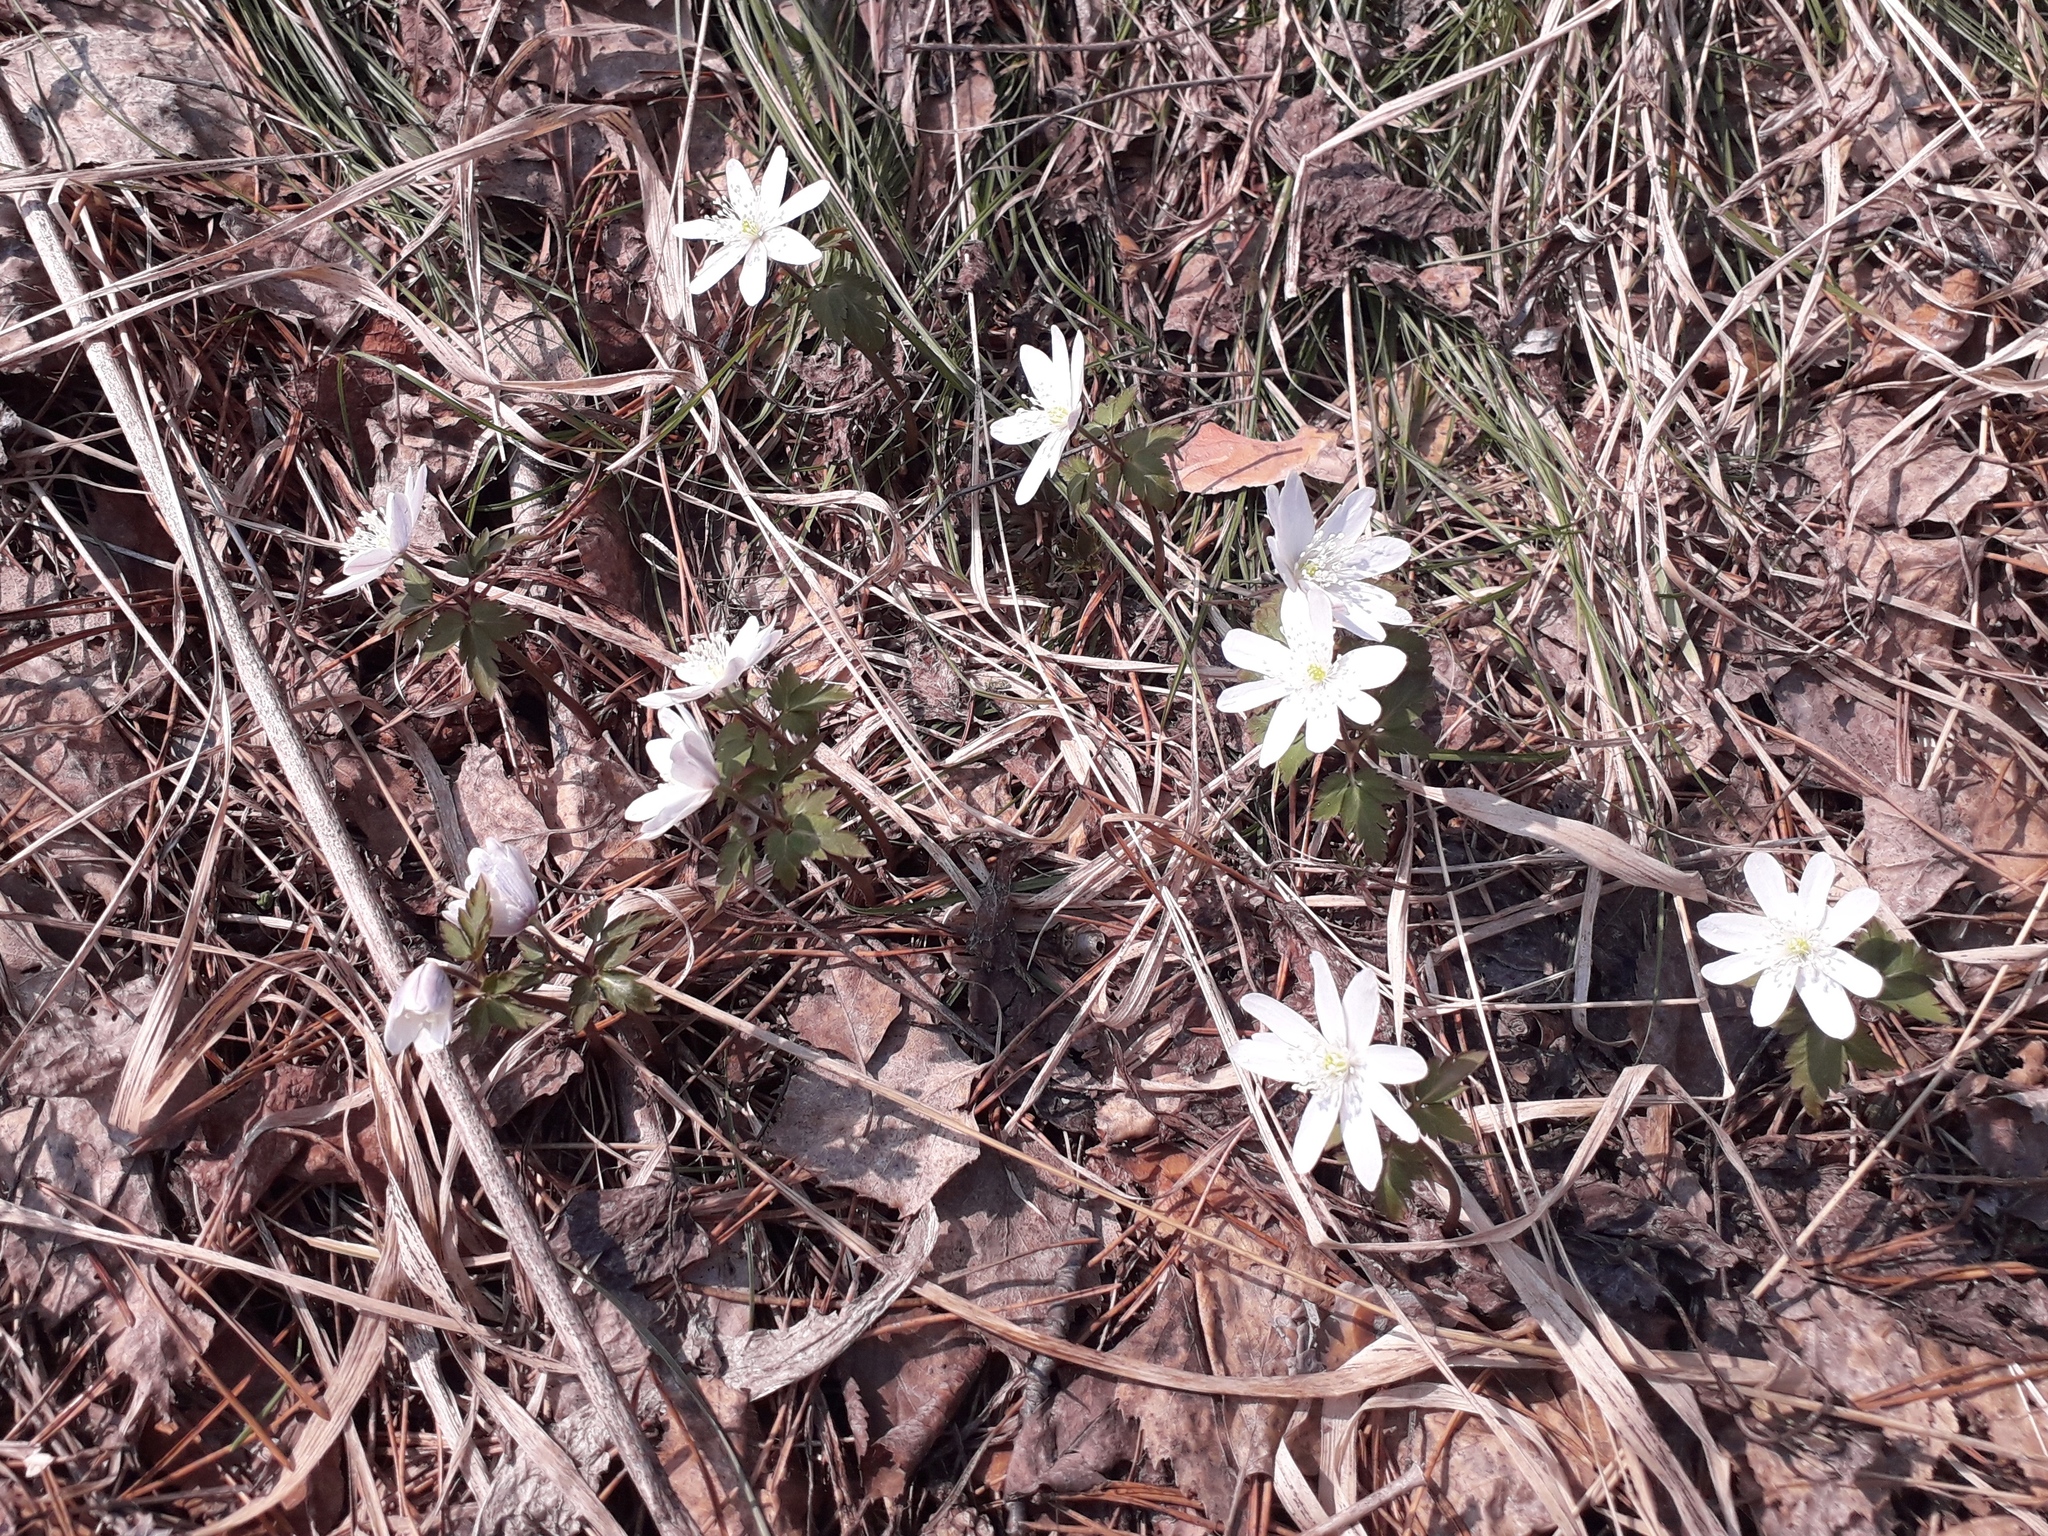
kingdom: Plantae
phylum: Tracheophyta
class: Magnoliopsida
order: Ranunculales
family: Ranunculaceae
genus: Anemone
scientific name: Anemone altaica
